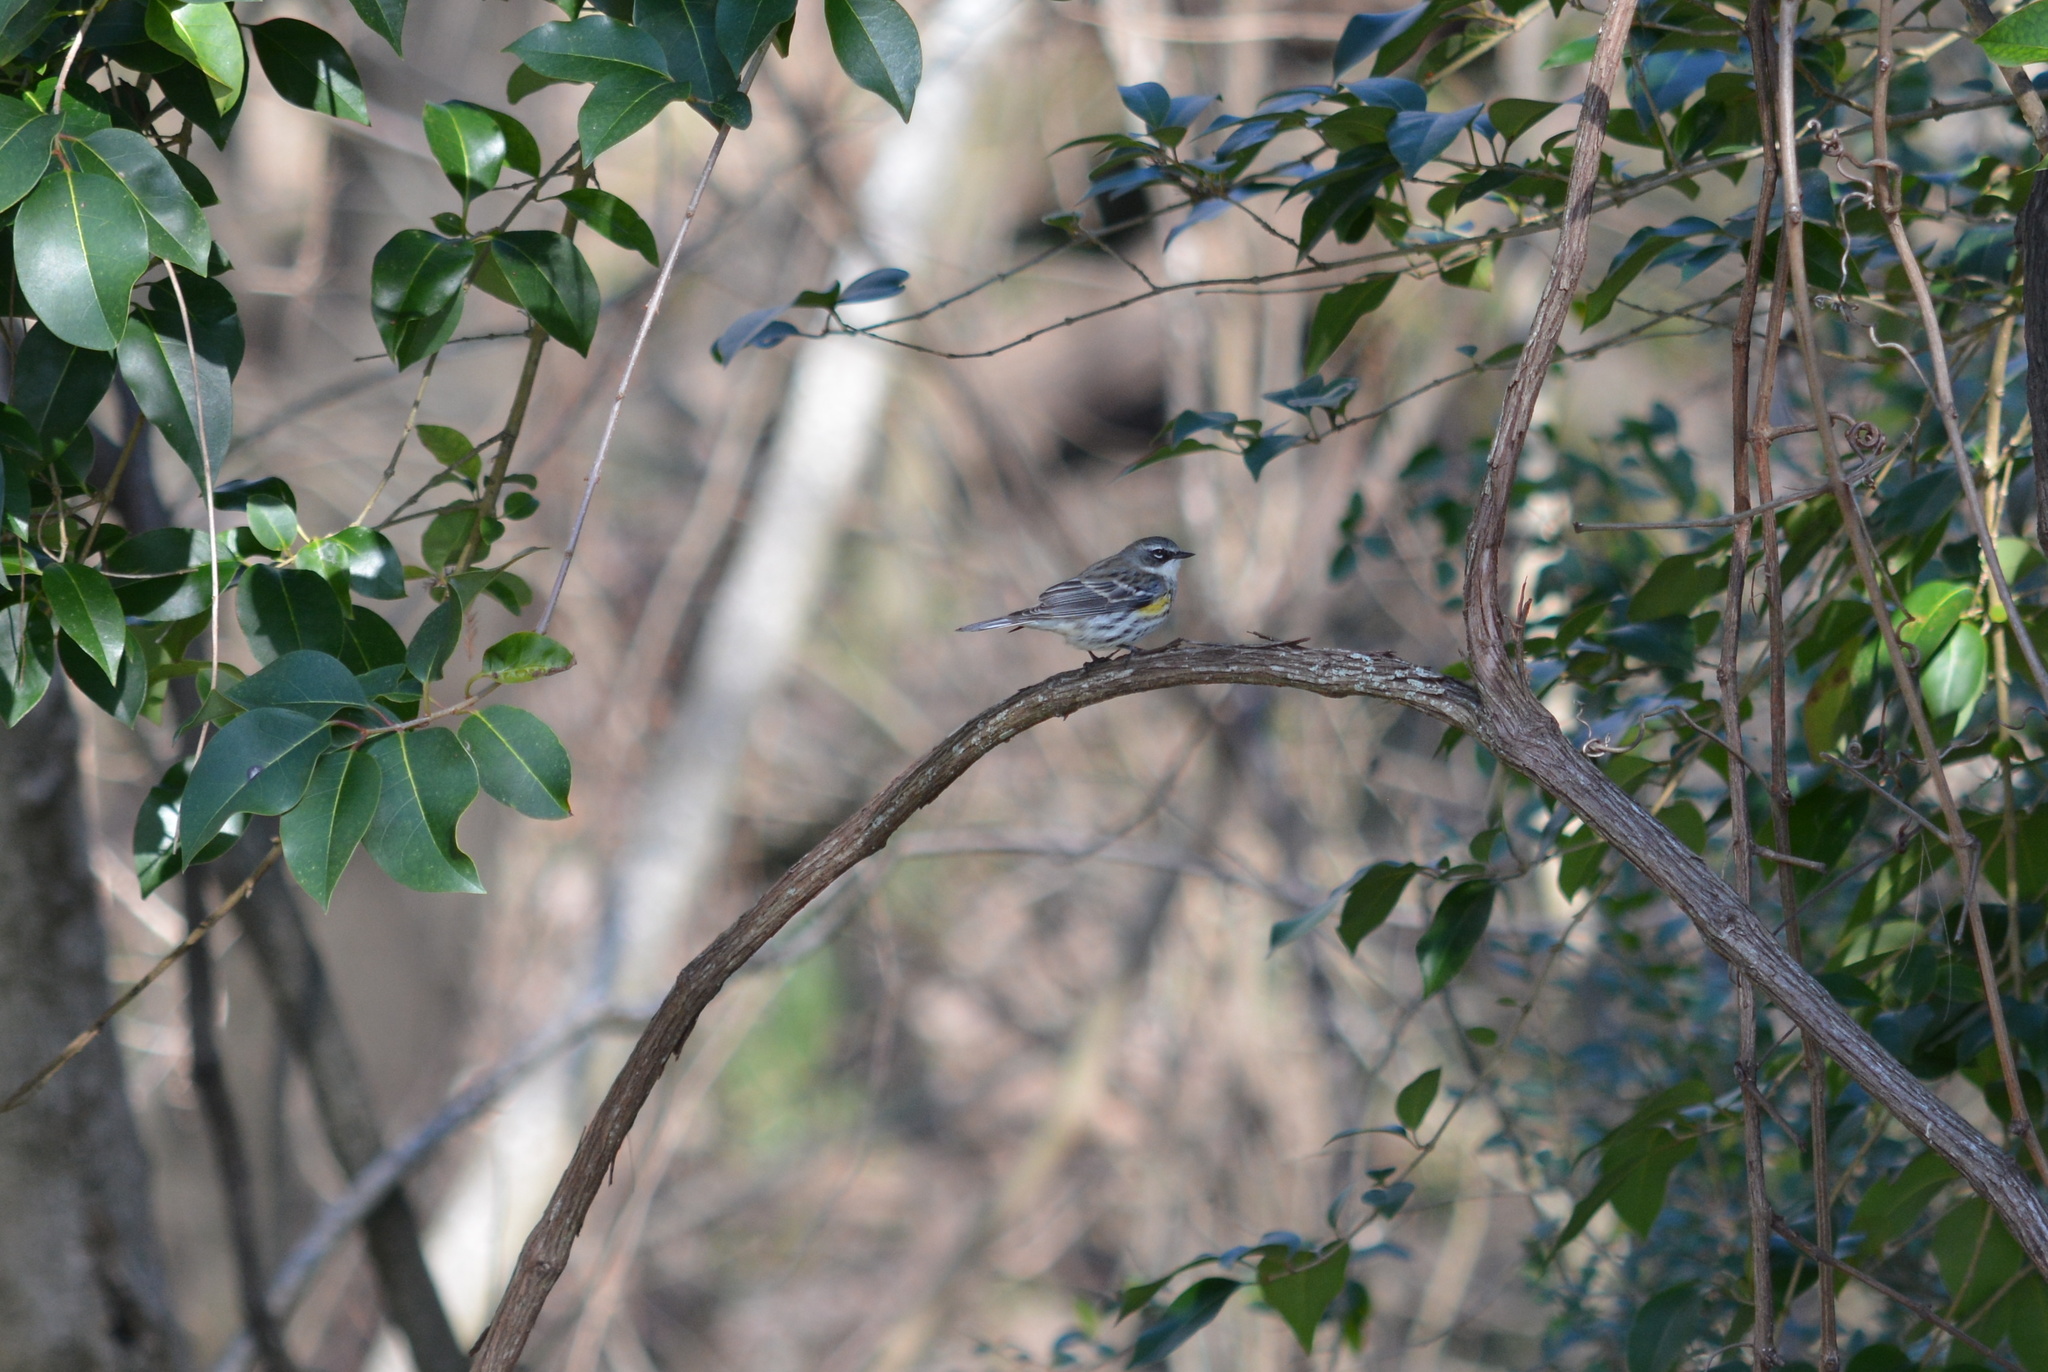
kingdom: Animalia
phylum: Chordata
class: Aves
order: Passeriformes
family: Parulidae
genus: Setophaga
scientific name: Setophaga coronata
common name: Myrtle warbler
